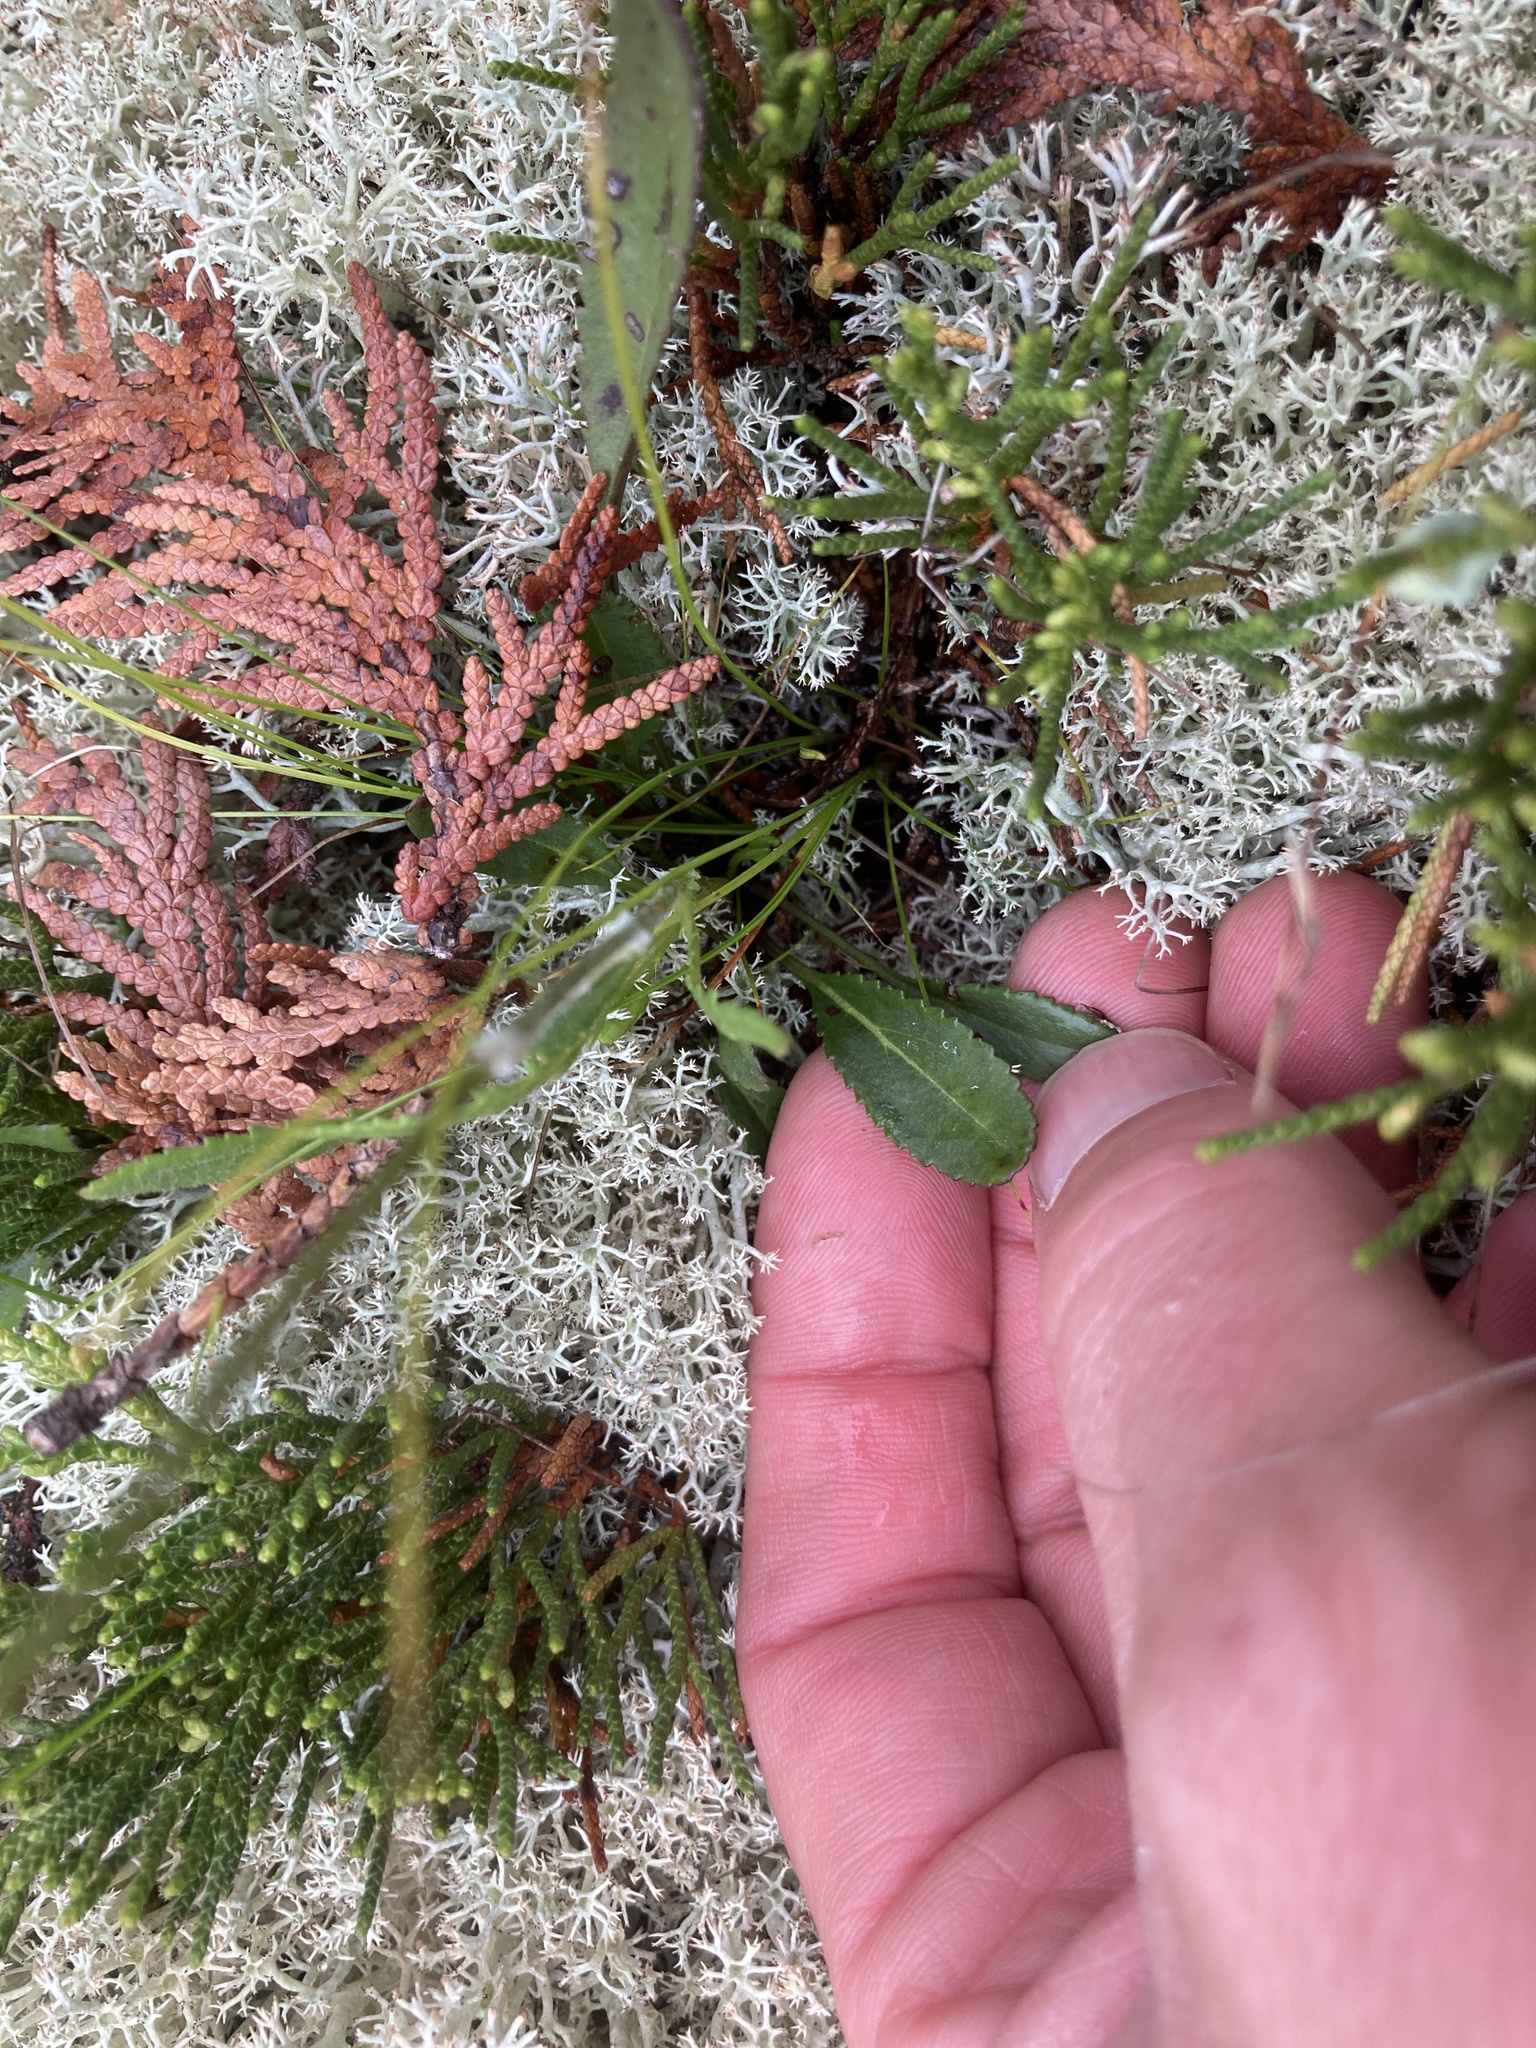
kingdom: Plantae
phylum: Tracheophyta
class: Magnoliopsida
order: Asterales
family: Asteraceae
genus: Packera
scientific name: Packera paupercula
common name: Balsam groundsel
